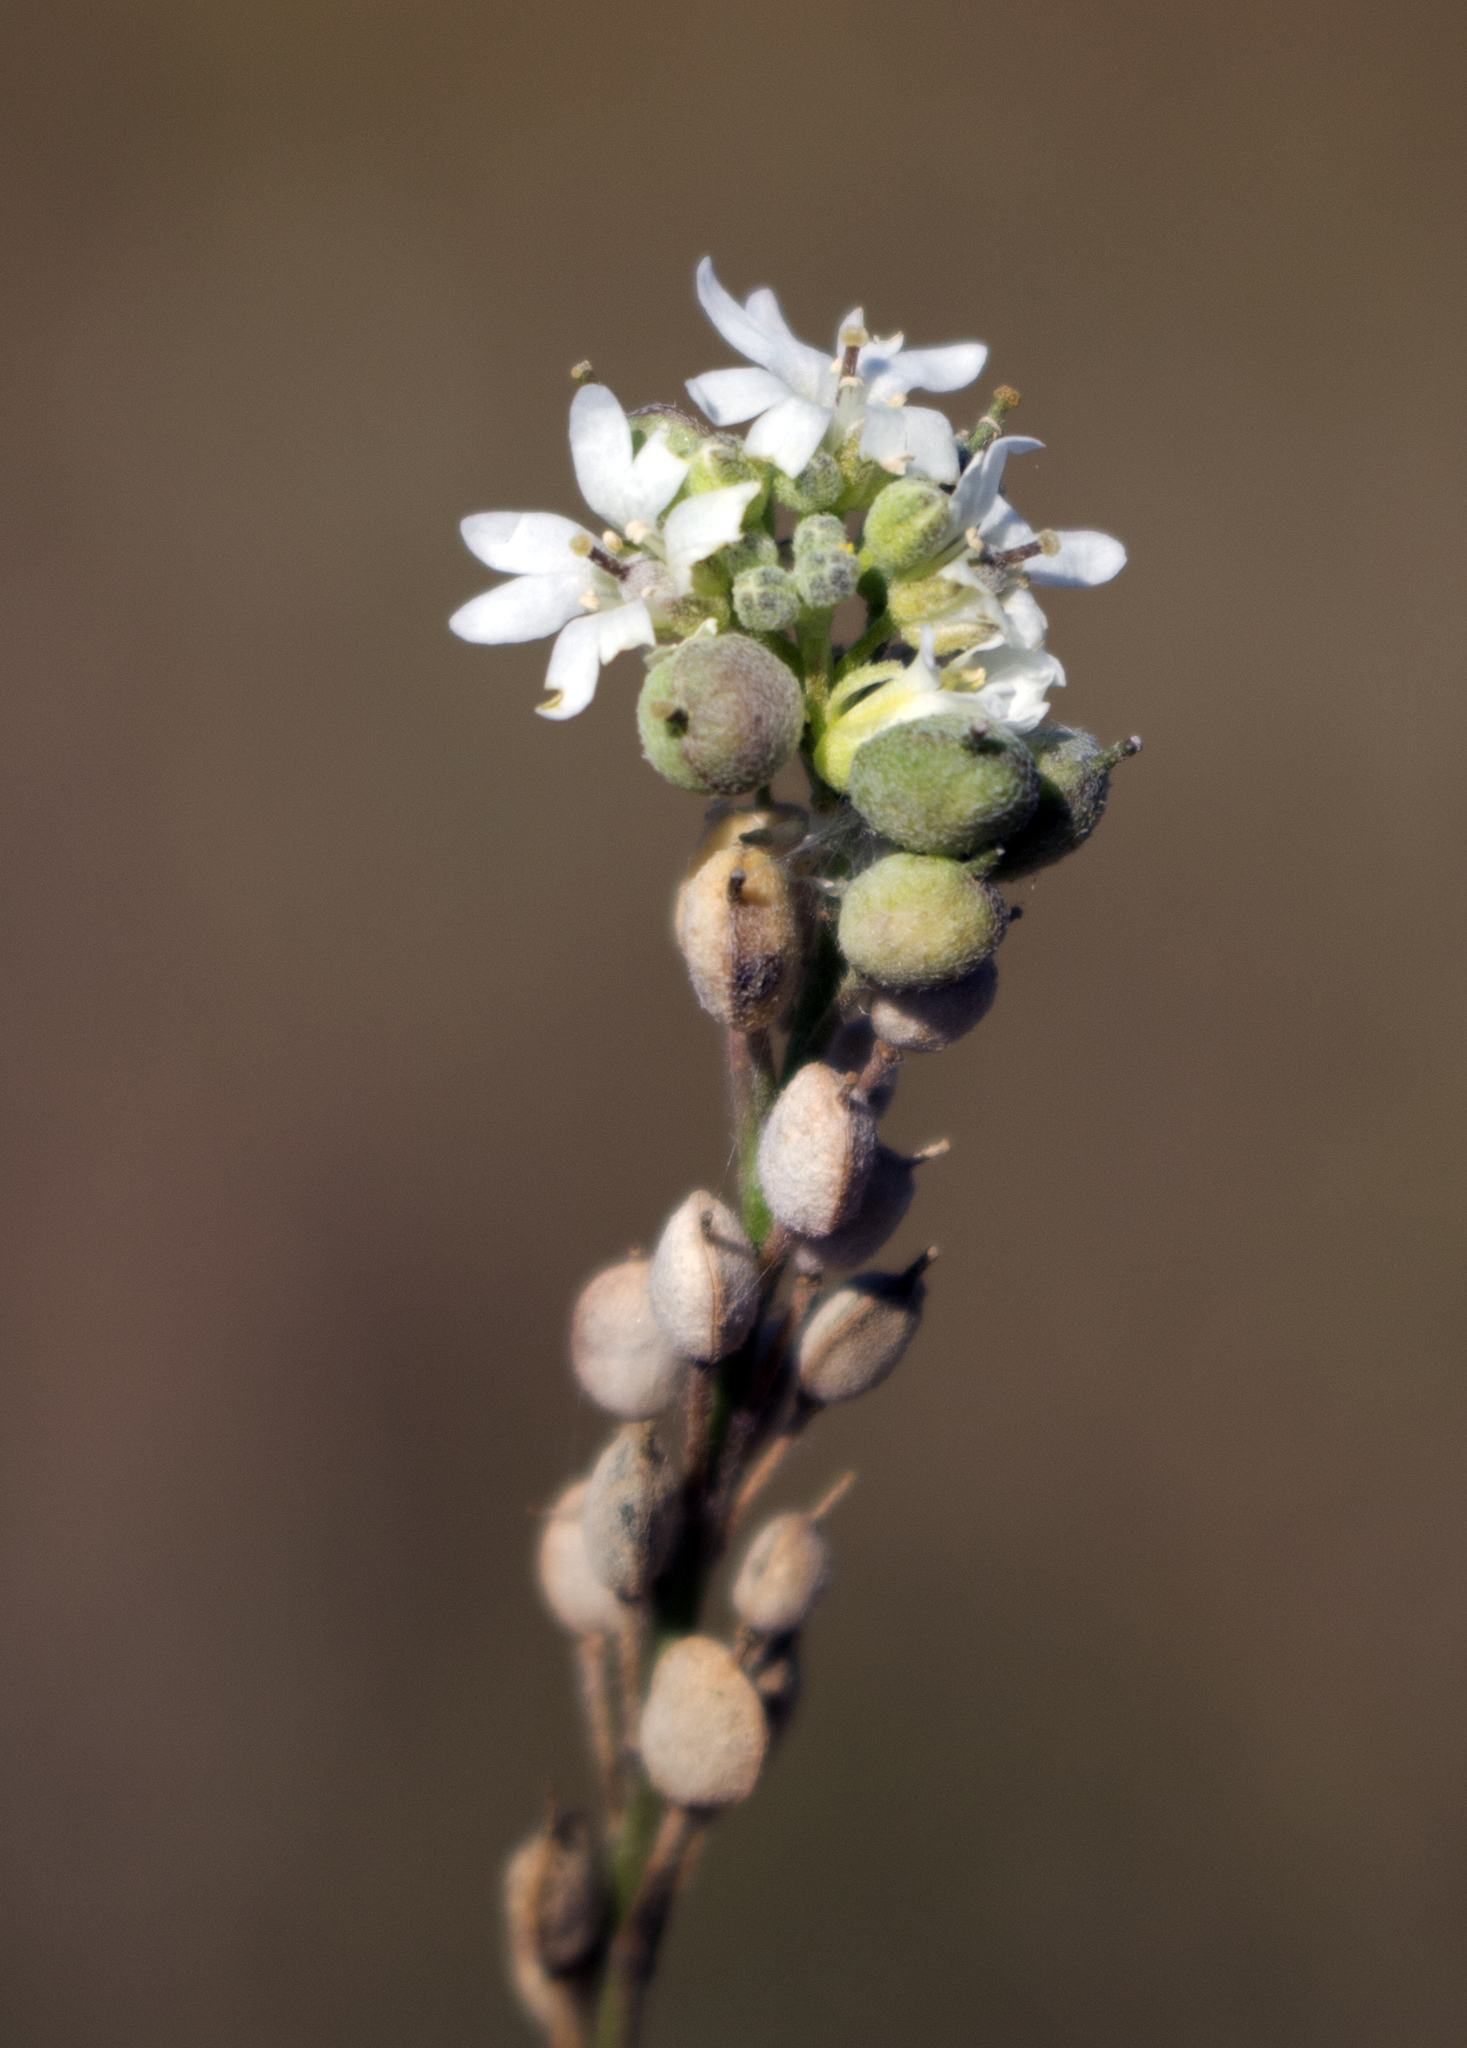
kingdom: Plantae
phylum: Tracheophyta
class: Magnoliopsida
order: Brassicales
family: Brassicaceae
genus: Berteroa
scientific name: Berteroa incana
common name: Hoary alison
